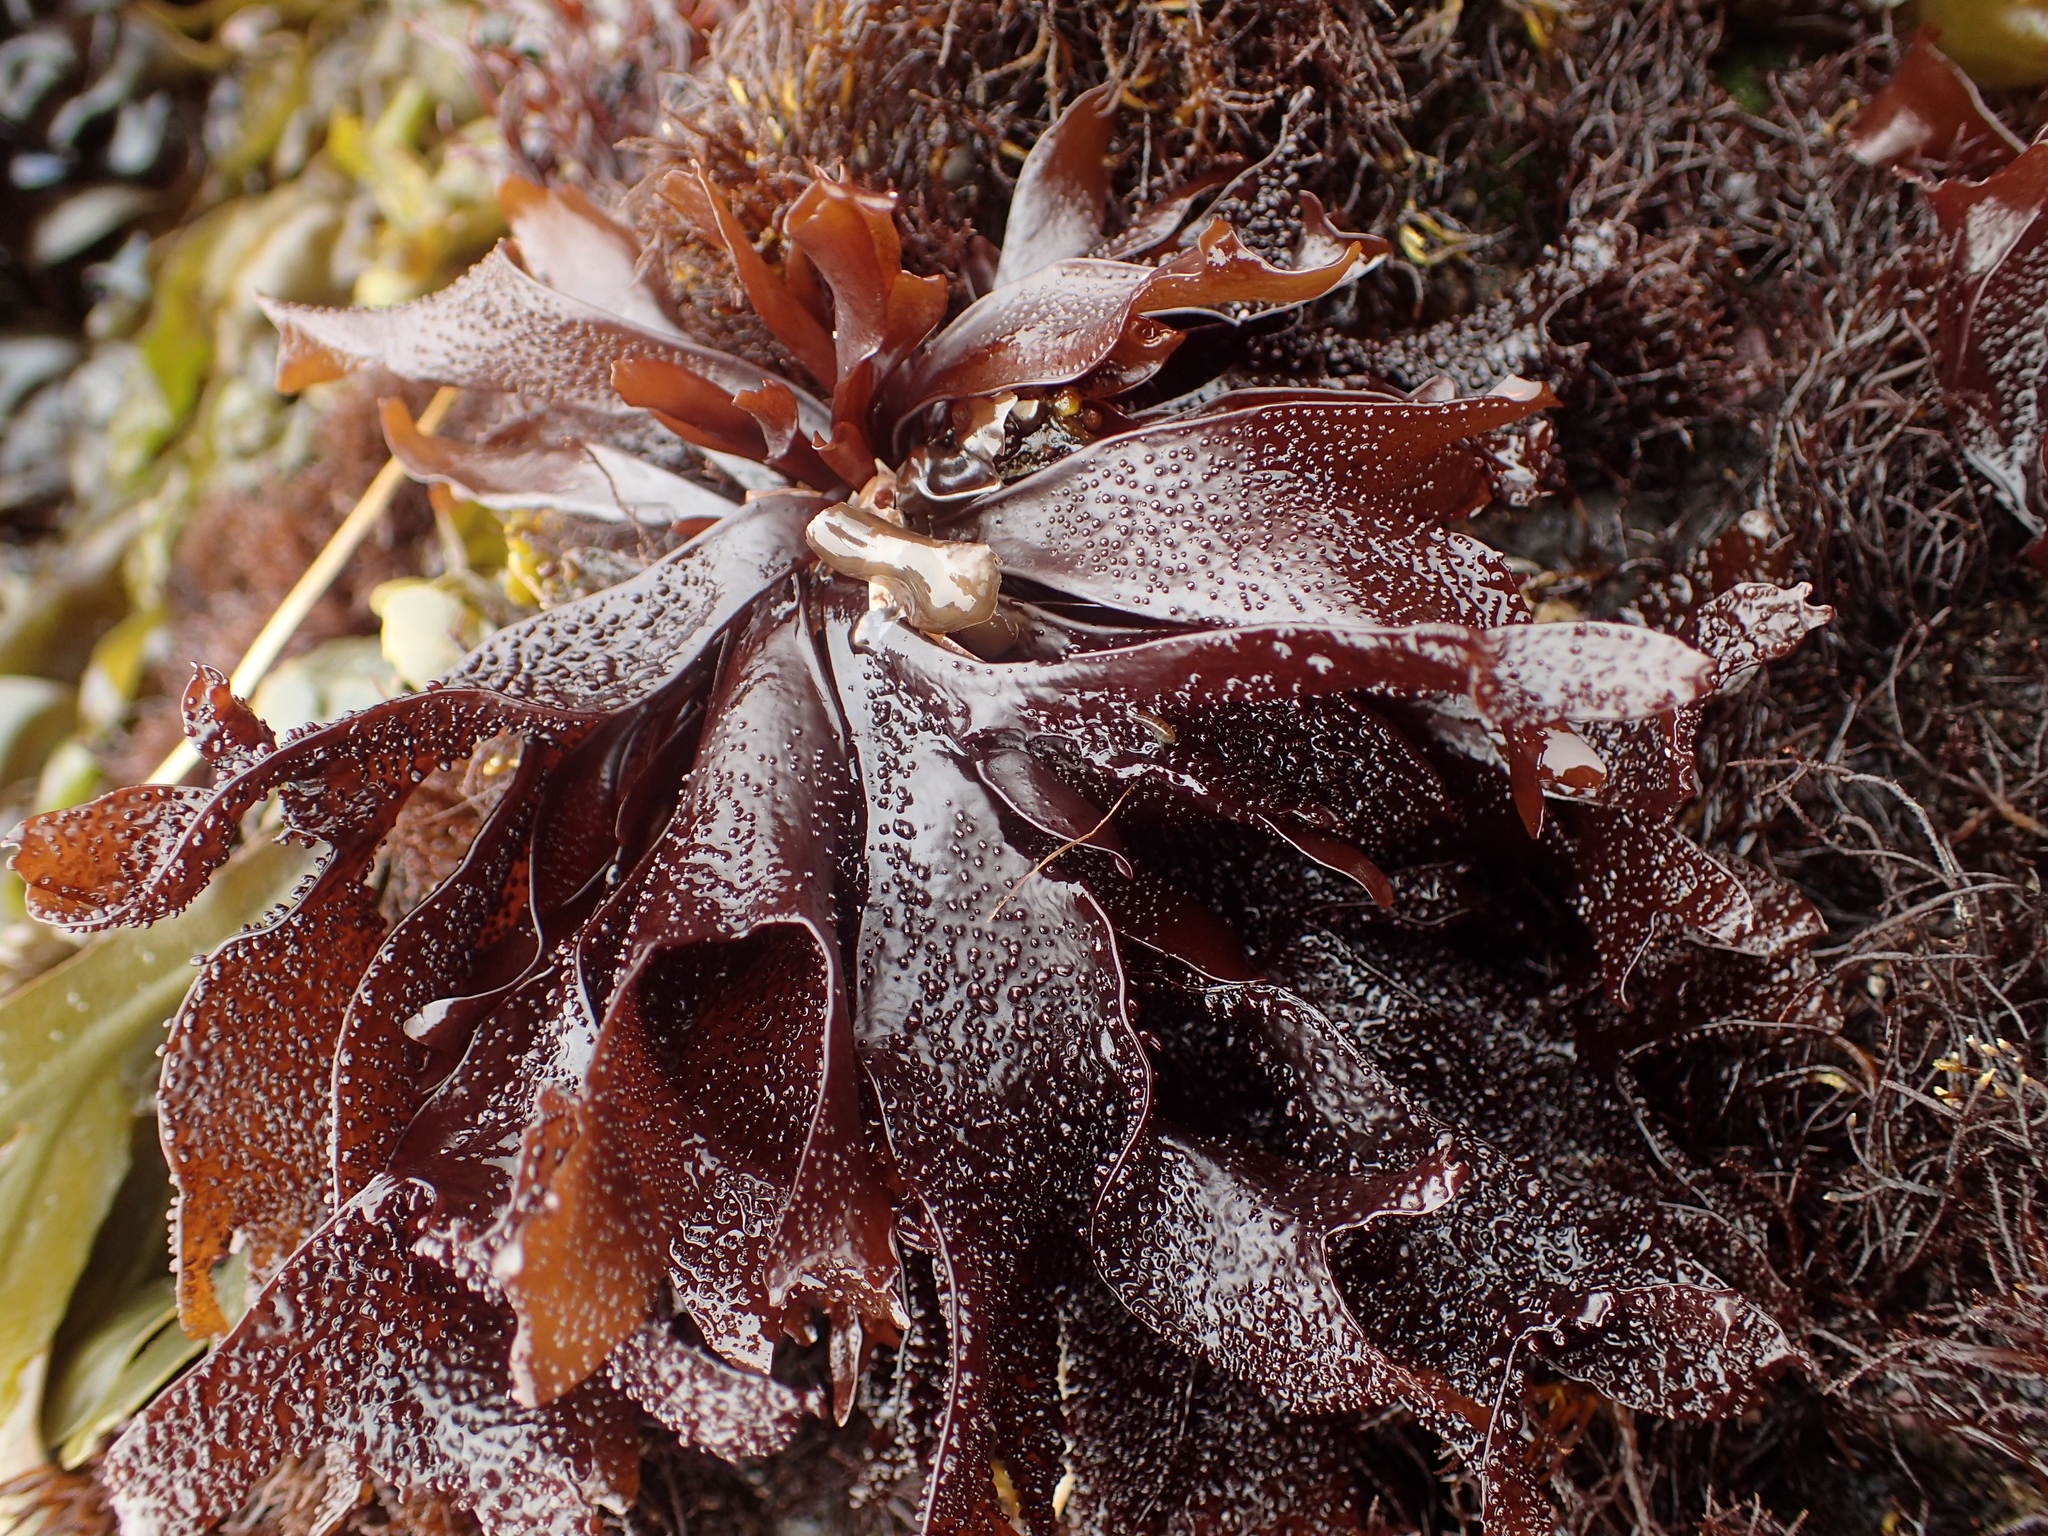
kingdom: Plantae
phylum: Rhodophyta
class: Florideophyceae
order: Gigartinales
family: Phyllophoraceae
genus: Mastocarpus
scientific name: Mastocarpus papillatus
